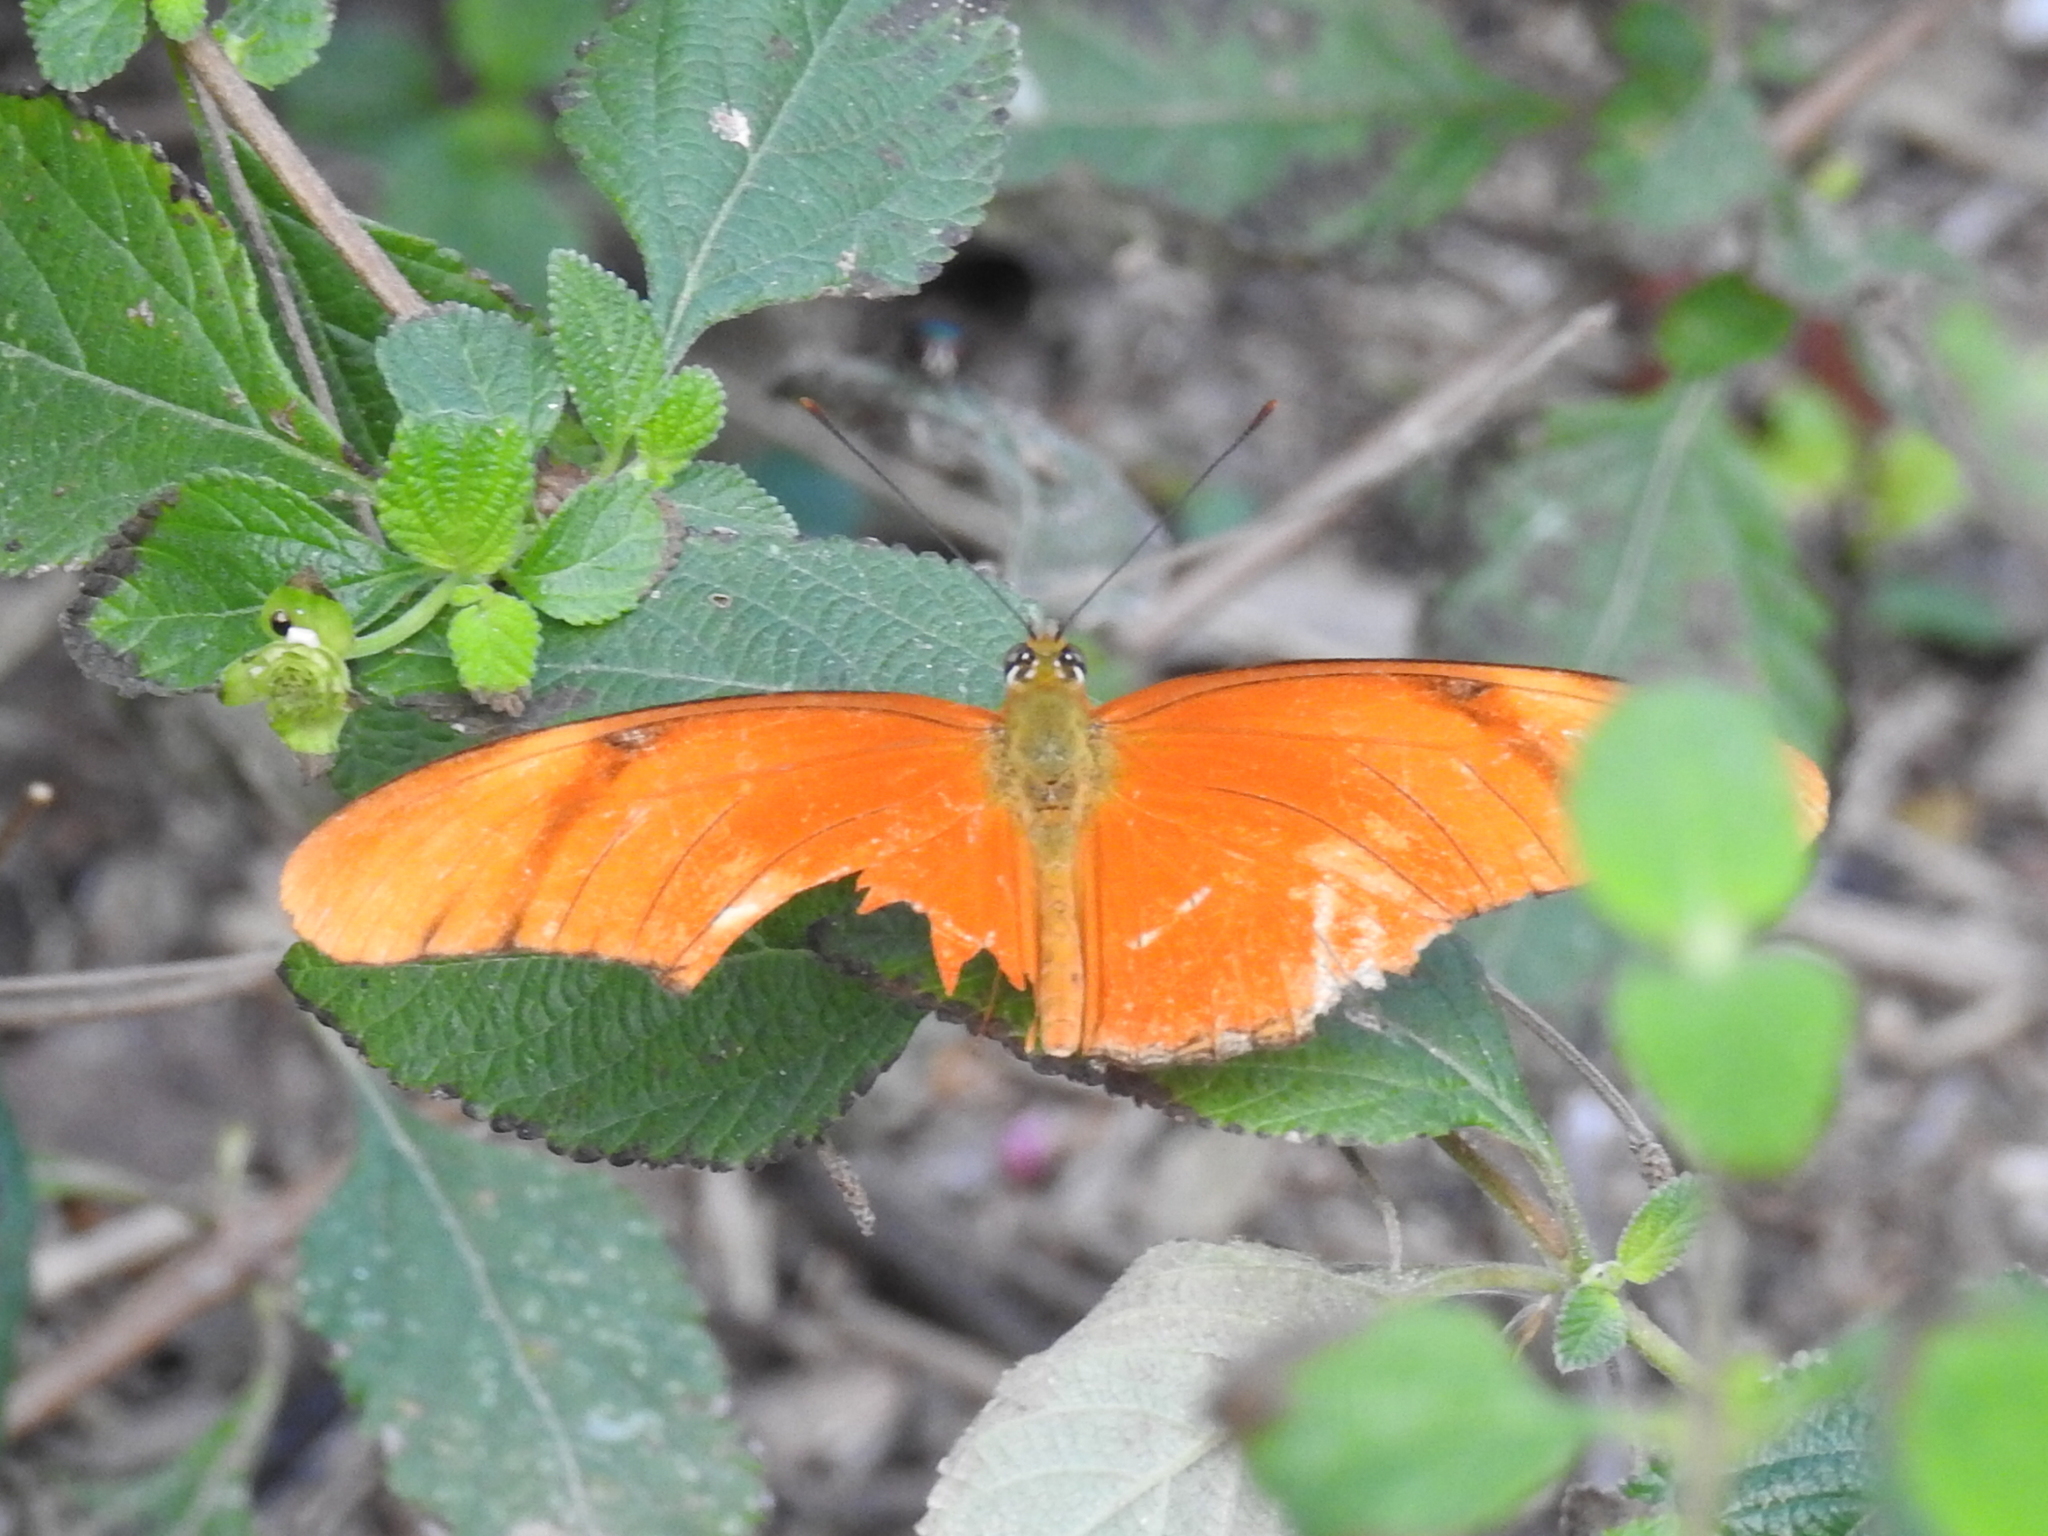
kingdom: Animalia
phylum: Arthropoda
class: Insecta
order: Lepidoptera
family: Nymphalidae
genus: Dryas
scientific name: Dryas iulia
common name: Flambeau
